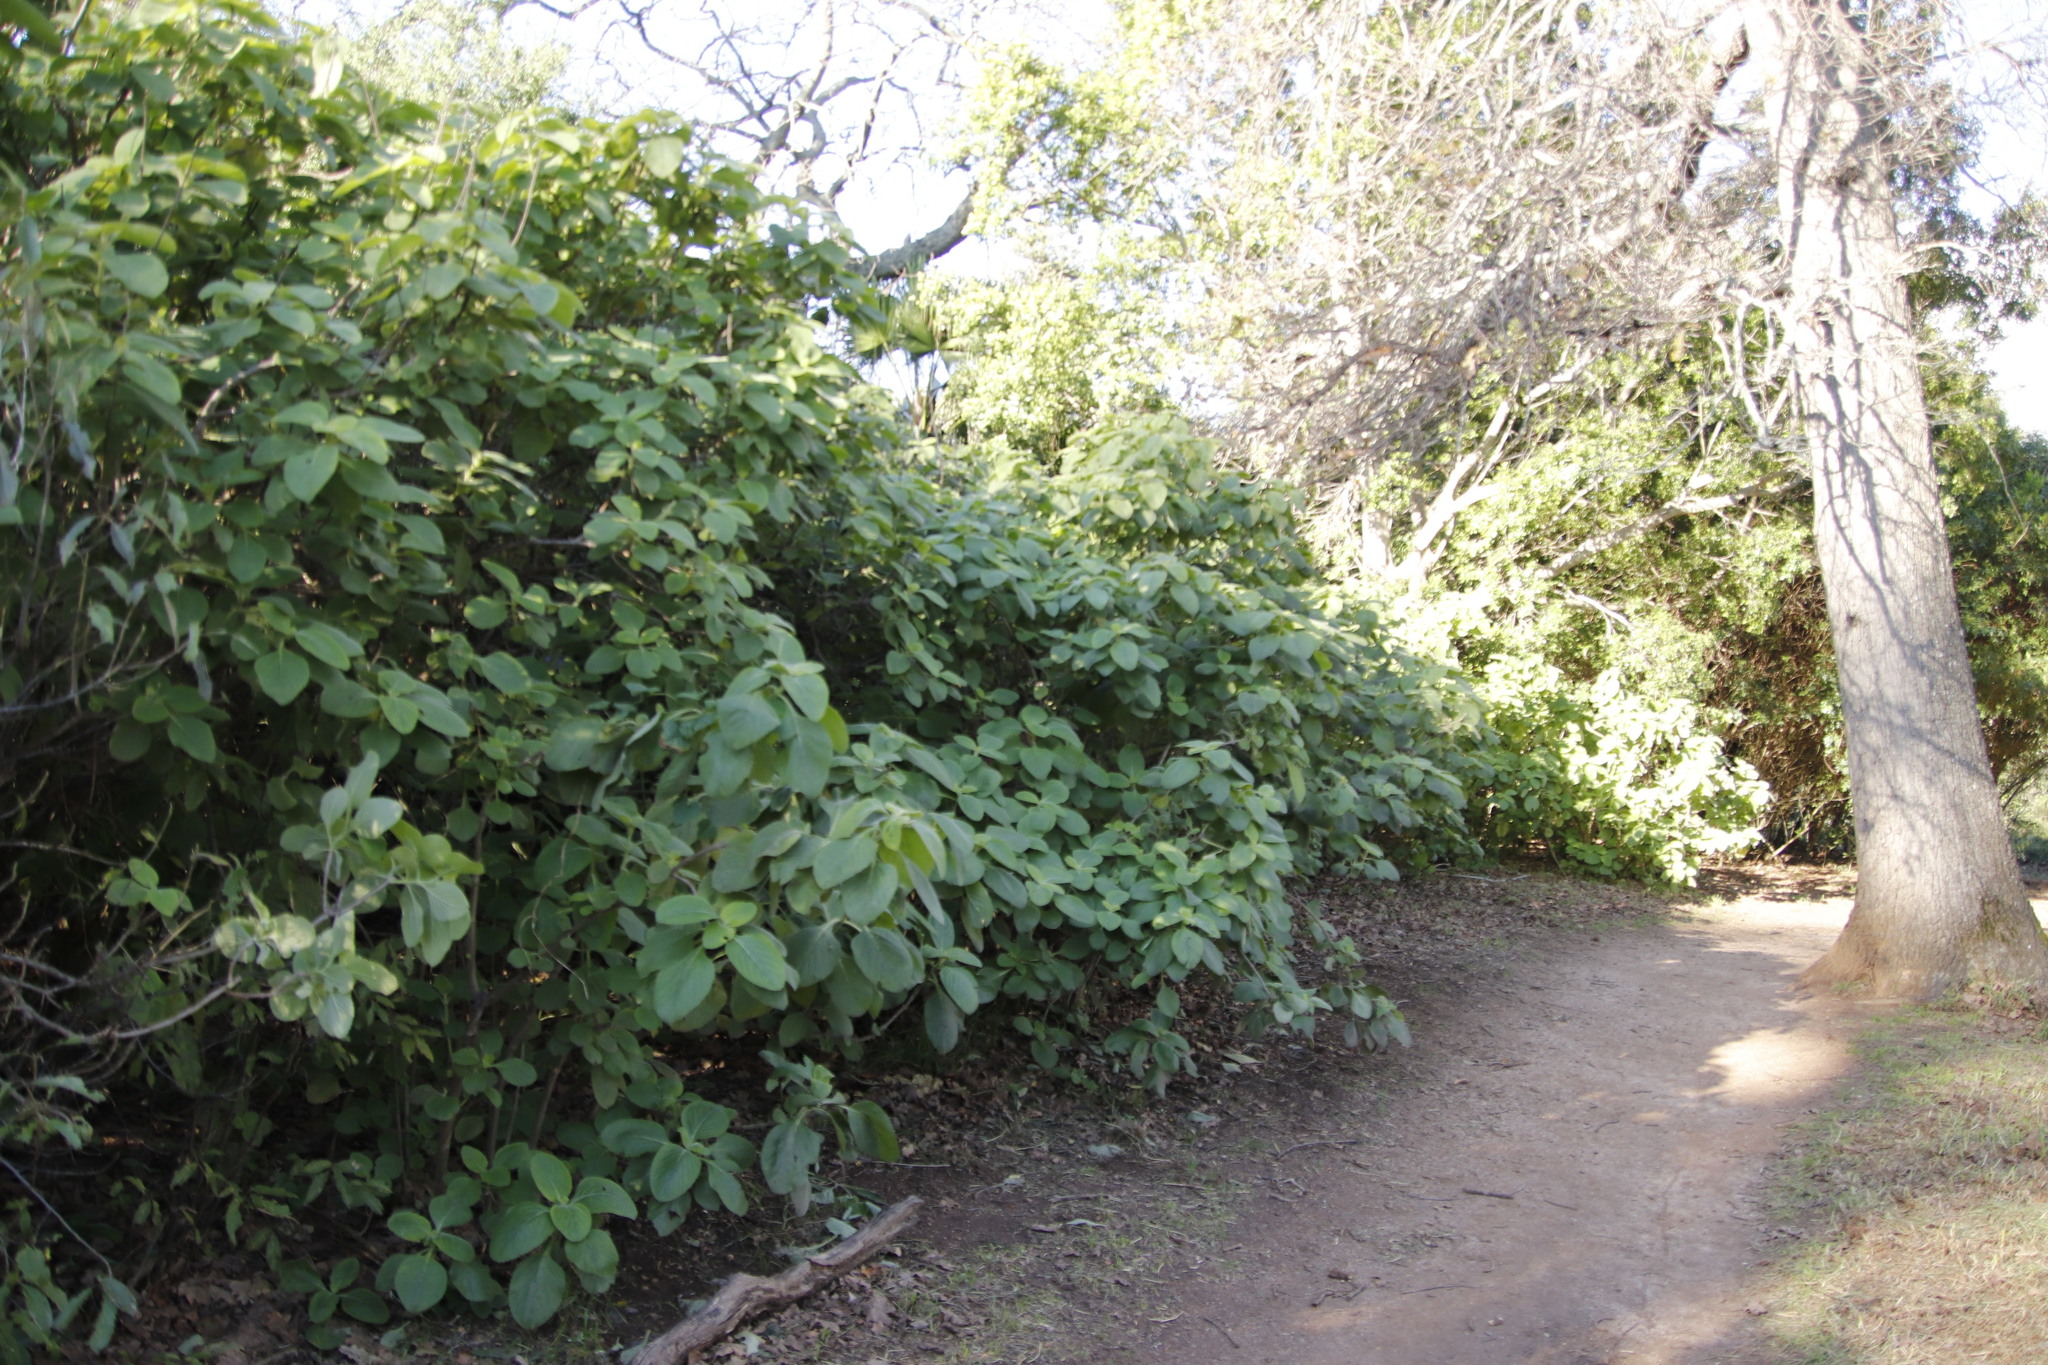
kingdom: Plantae
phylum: Tracheophyta
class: Magnoliopsida
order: Lamiales
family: Lamiaceae
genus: Coleus
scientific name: Coleus barbatus
